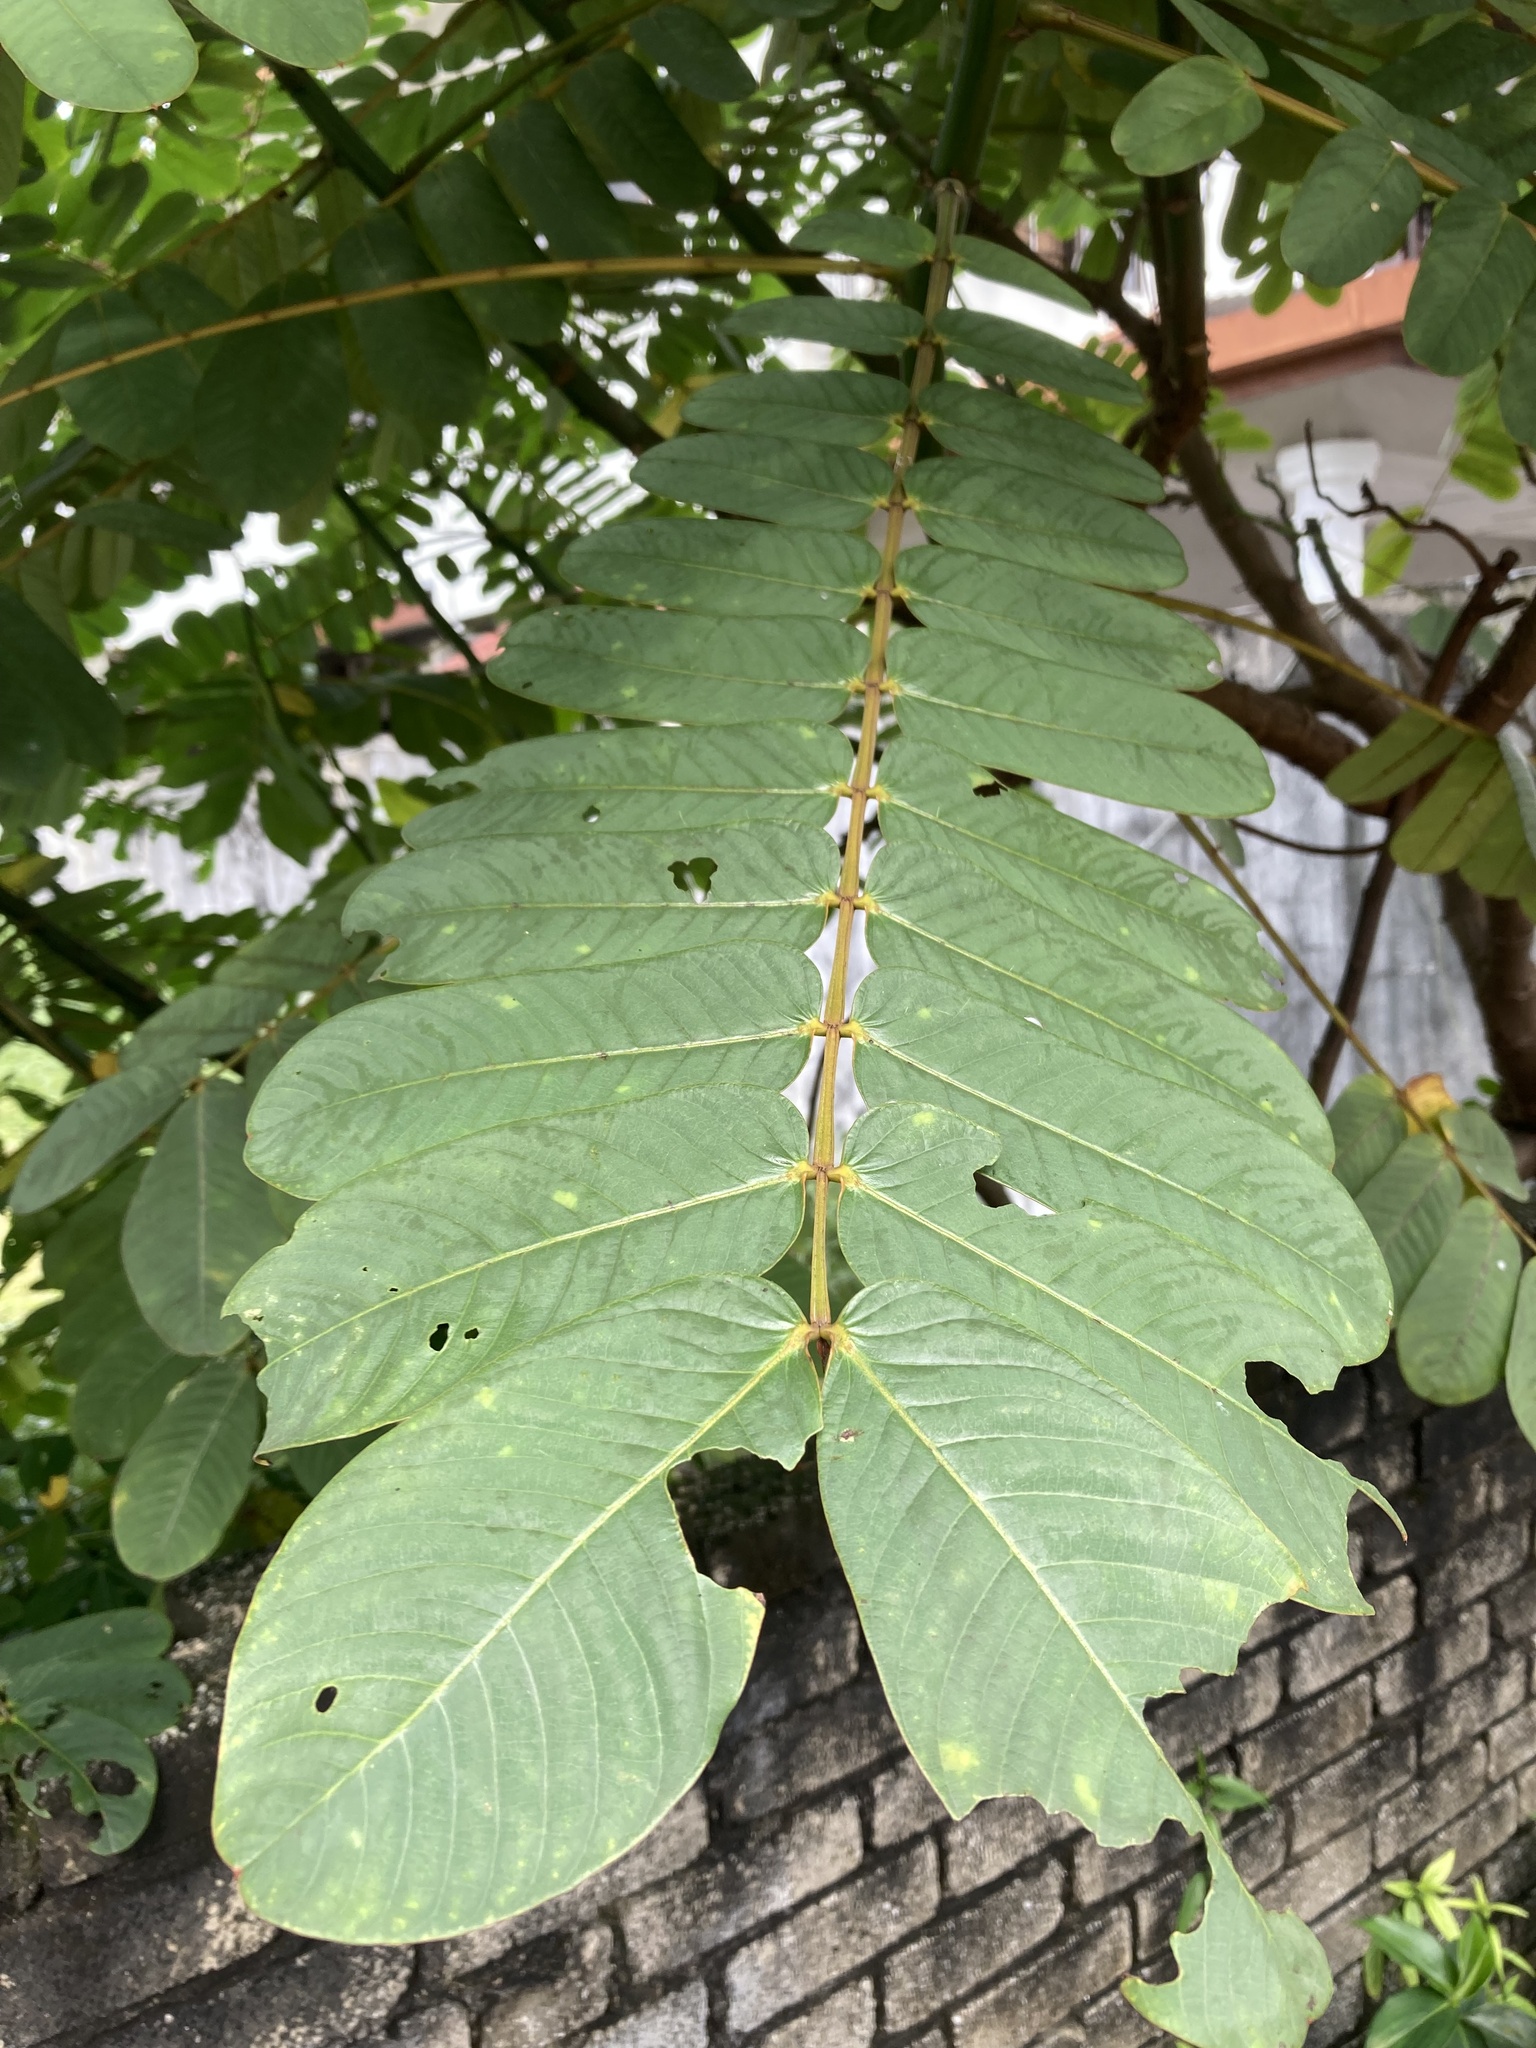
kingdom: Plantae
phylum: Tracheophyta
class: Magnoliopsida
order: Fabales
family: Fabaceae
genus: Senna
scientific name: Senna alata
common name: Emperor's candlesticks
